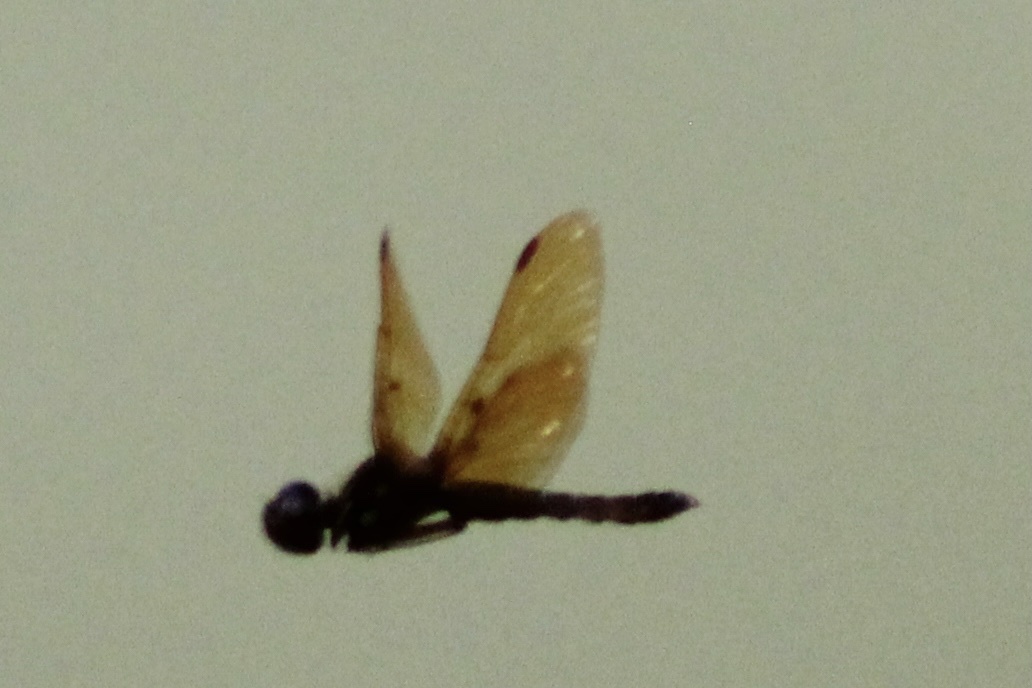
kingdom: Animalia
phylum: Arthropoda
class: Insecta
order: Odonata
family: Libellulidae
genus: Perithemis
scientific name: Perithemis tenera
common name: Eastern amberwing
